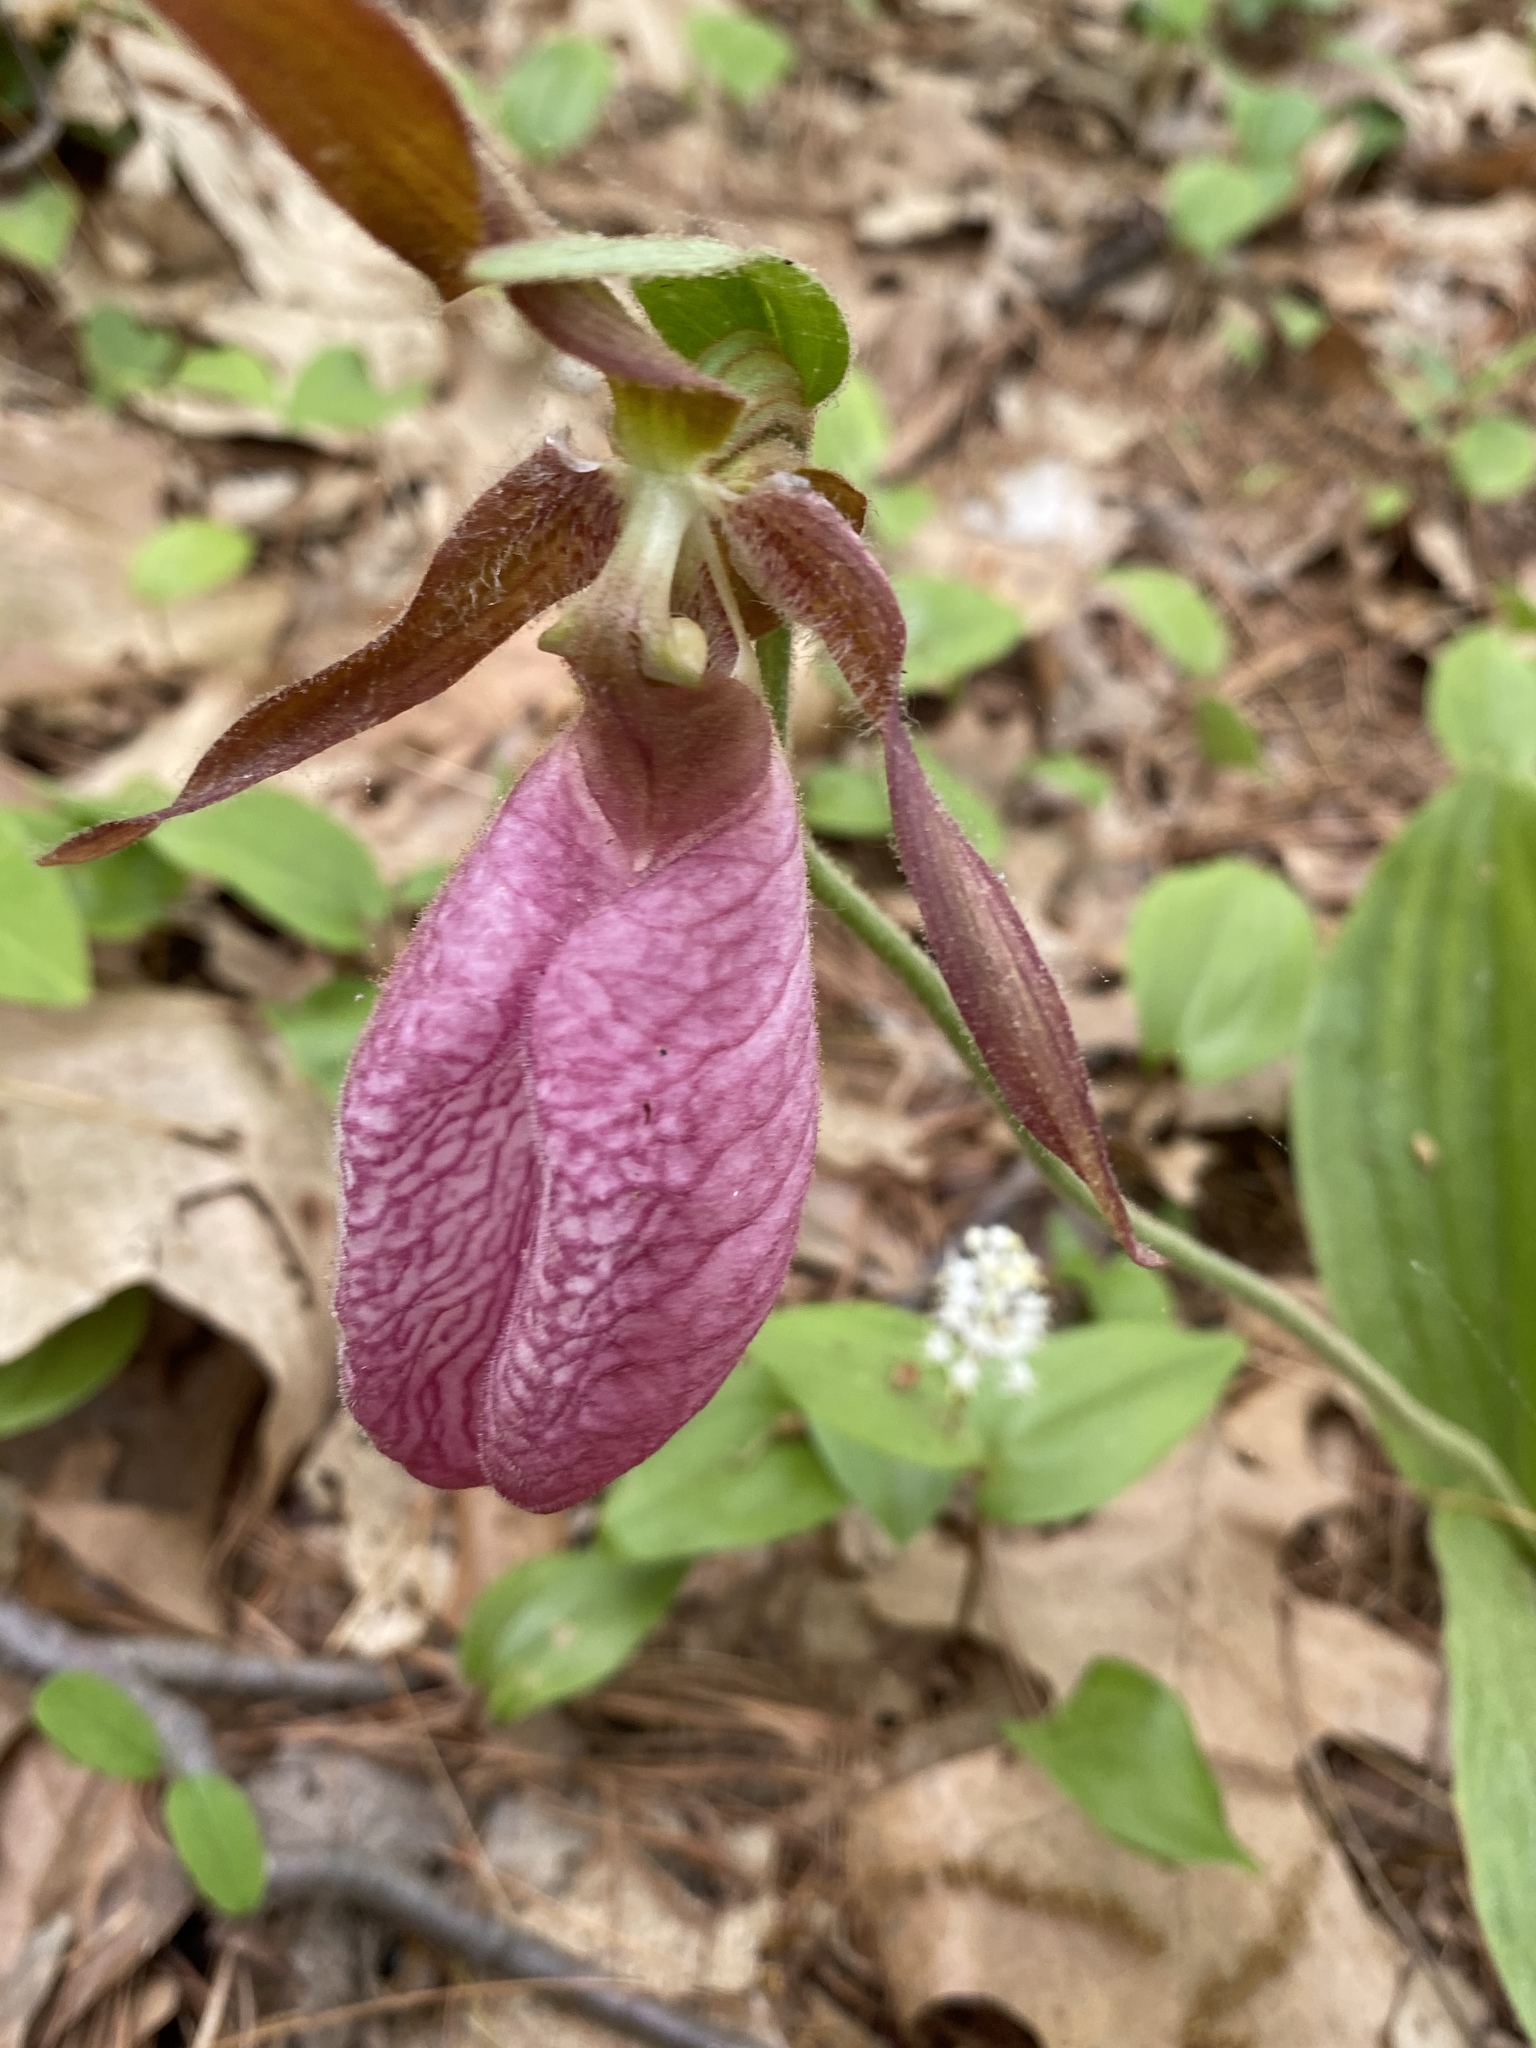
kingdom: Plantae
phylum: Tracheophyta
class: Liliopsida
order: Asparagales
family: Orchidaceae
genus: Cypripedium
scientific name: Cypripedium acaule
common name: Pink lady's-slipper
